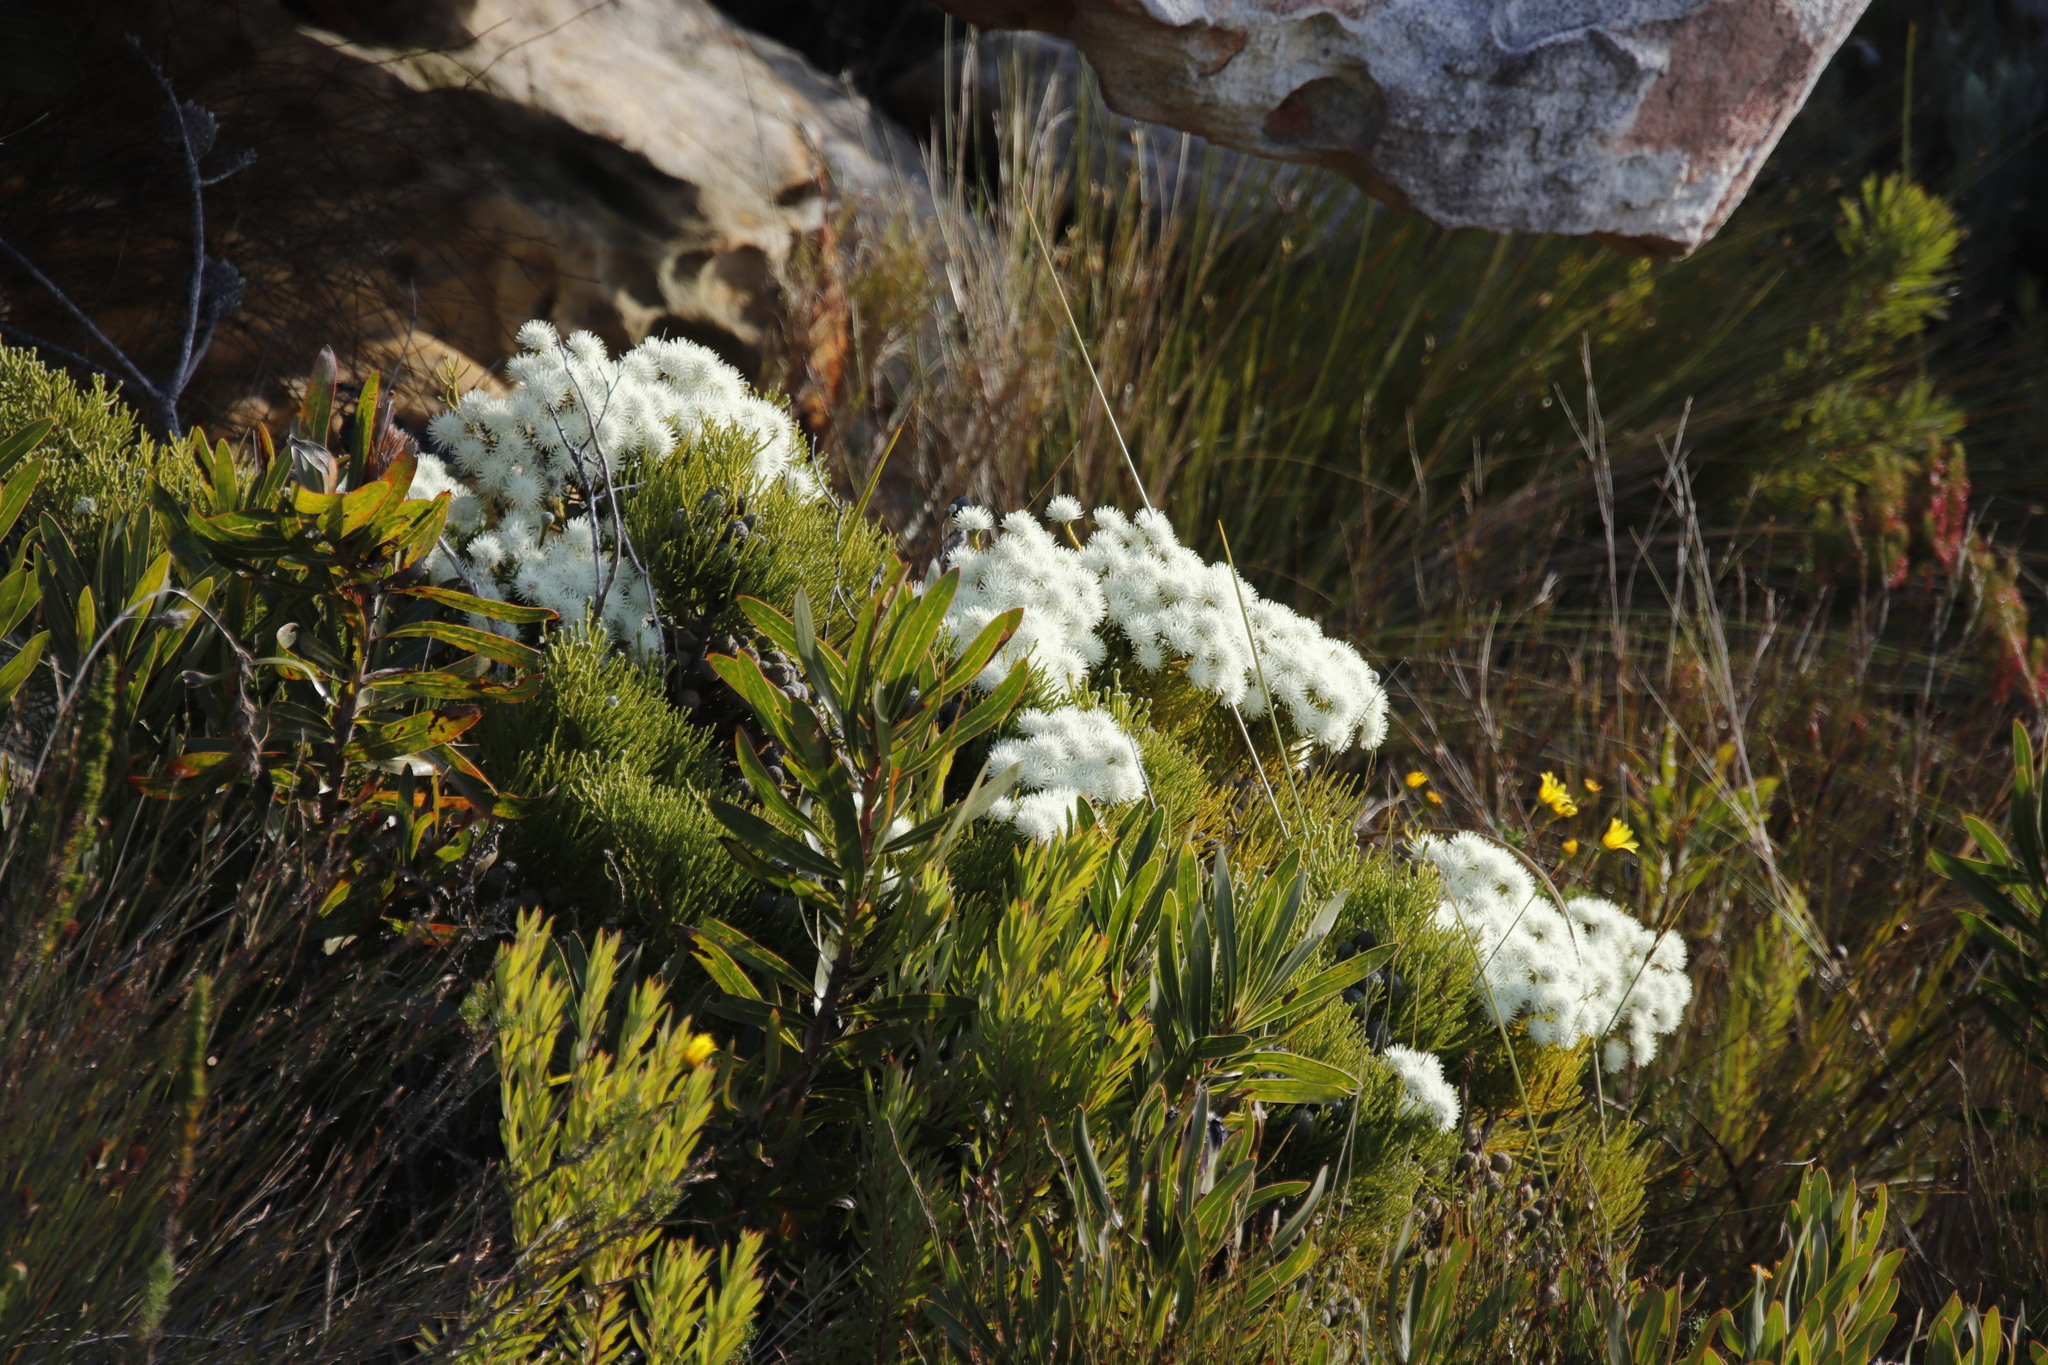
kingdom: Plantae
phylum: Tracheophyta
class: Magnoliopsida
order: Bruniales
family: Bruniaceae
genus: Brunia
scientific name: Brunia noduliflora
